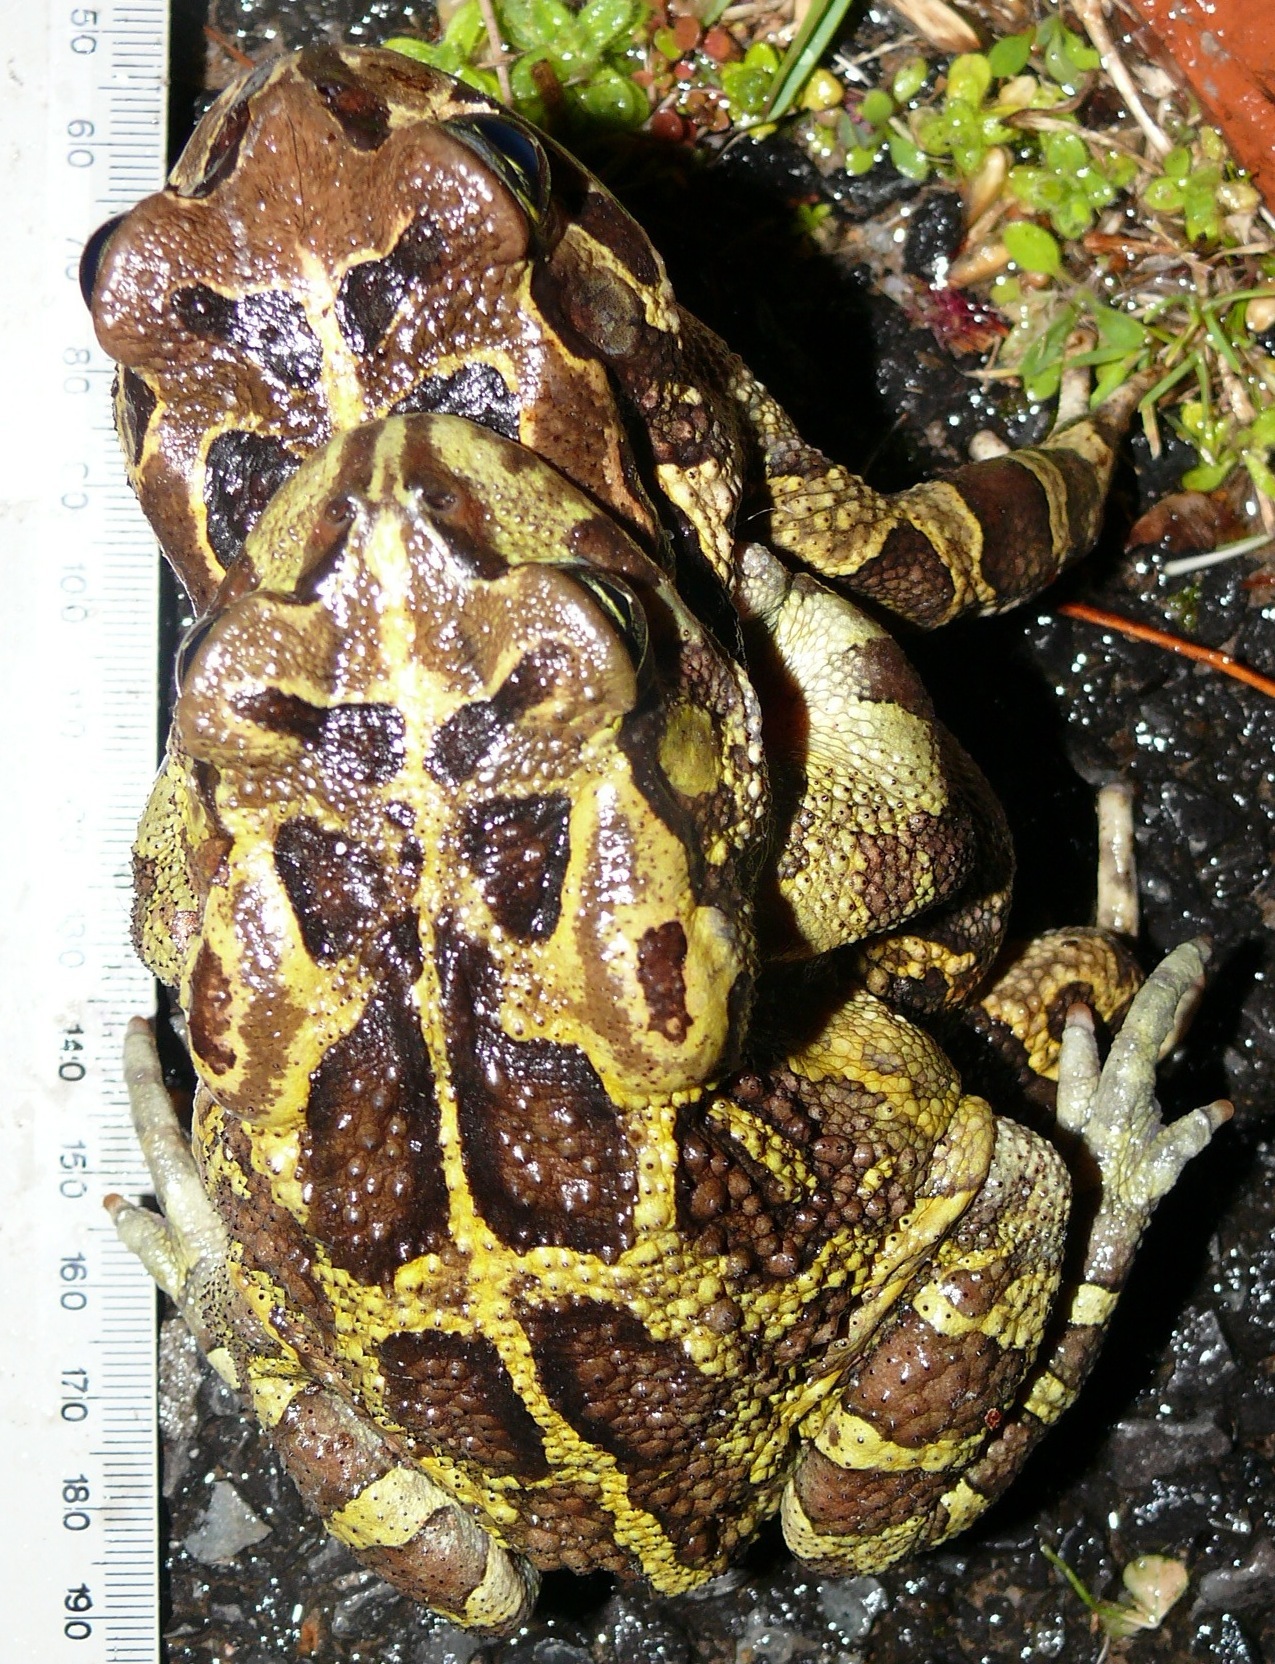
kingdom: Animalia
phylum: Chordata
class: Amphibia
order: Anura
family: Bufonidae
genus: Sclerophrys
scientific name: Sclerophrys pantherina
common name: Panther toad
